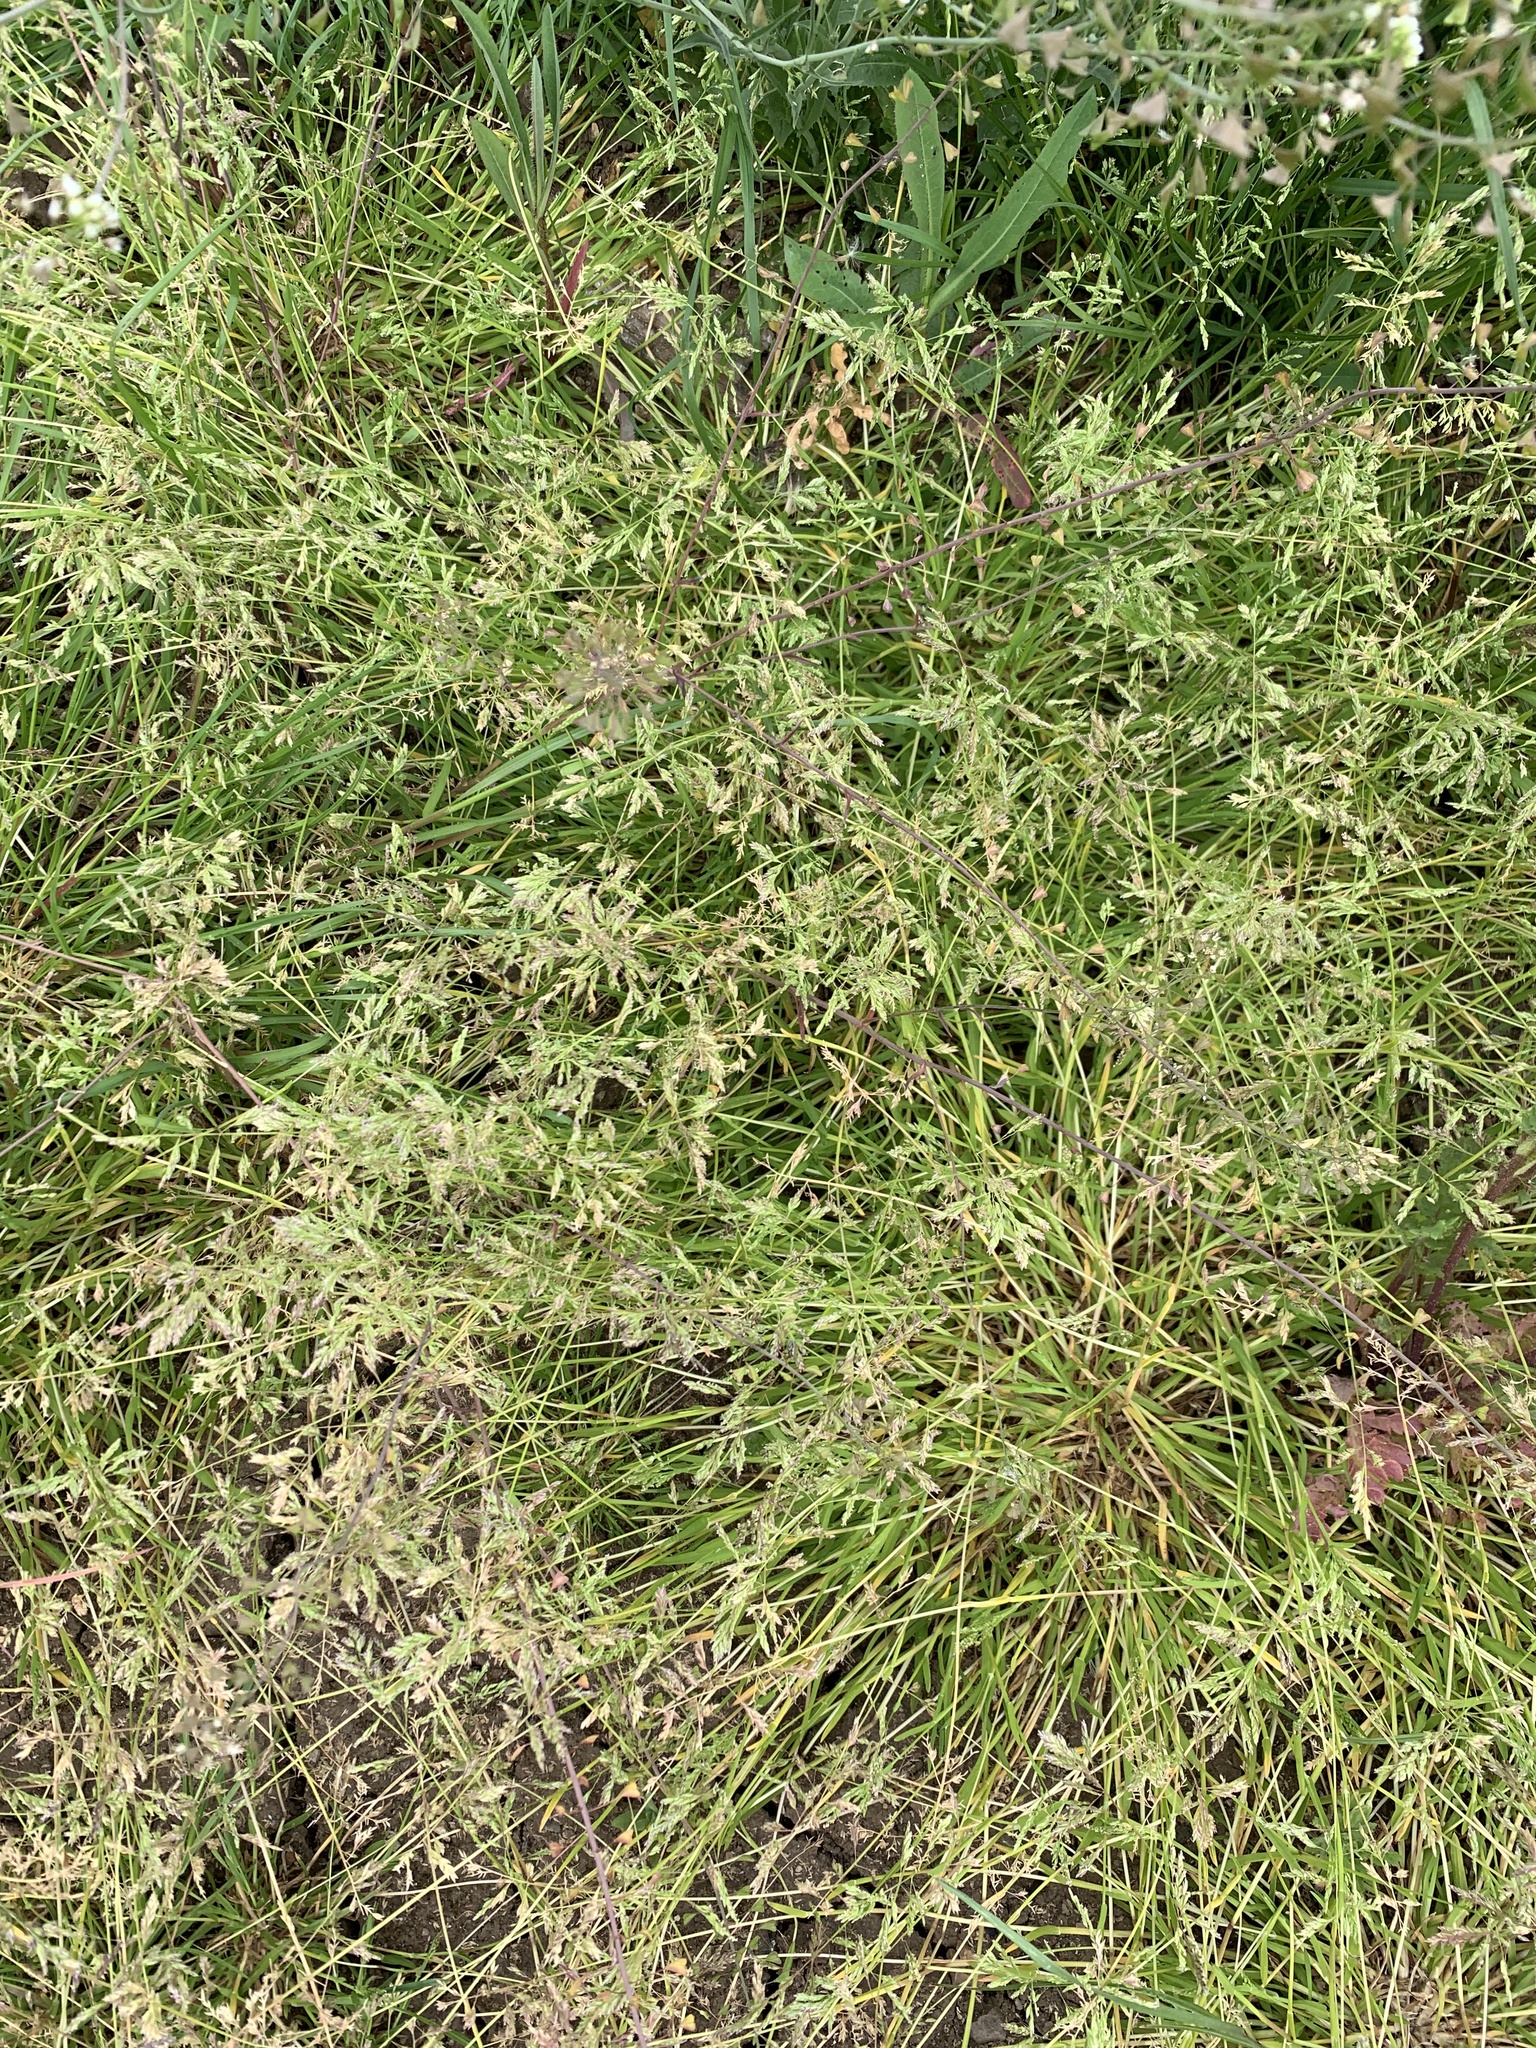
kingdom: Plantae
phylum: Tracheophyta
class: Liliopsida
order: Poales
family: Poaceae
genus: Poa
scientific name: Poa annua
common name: Annual bluegrass
